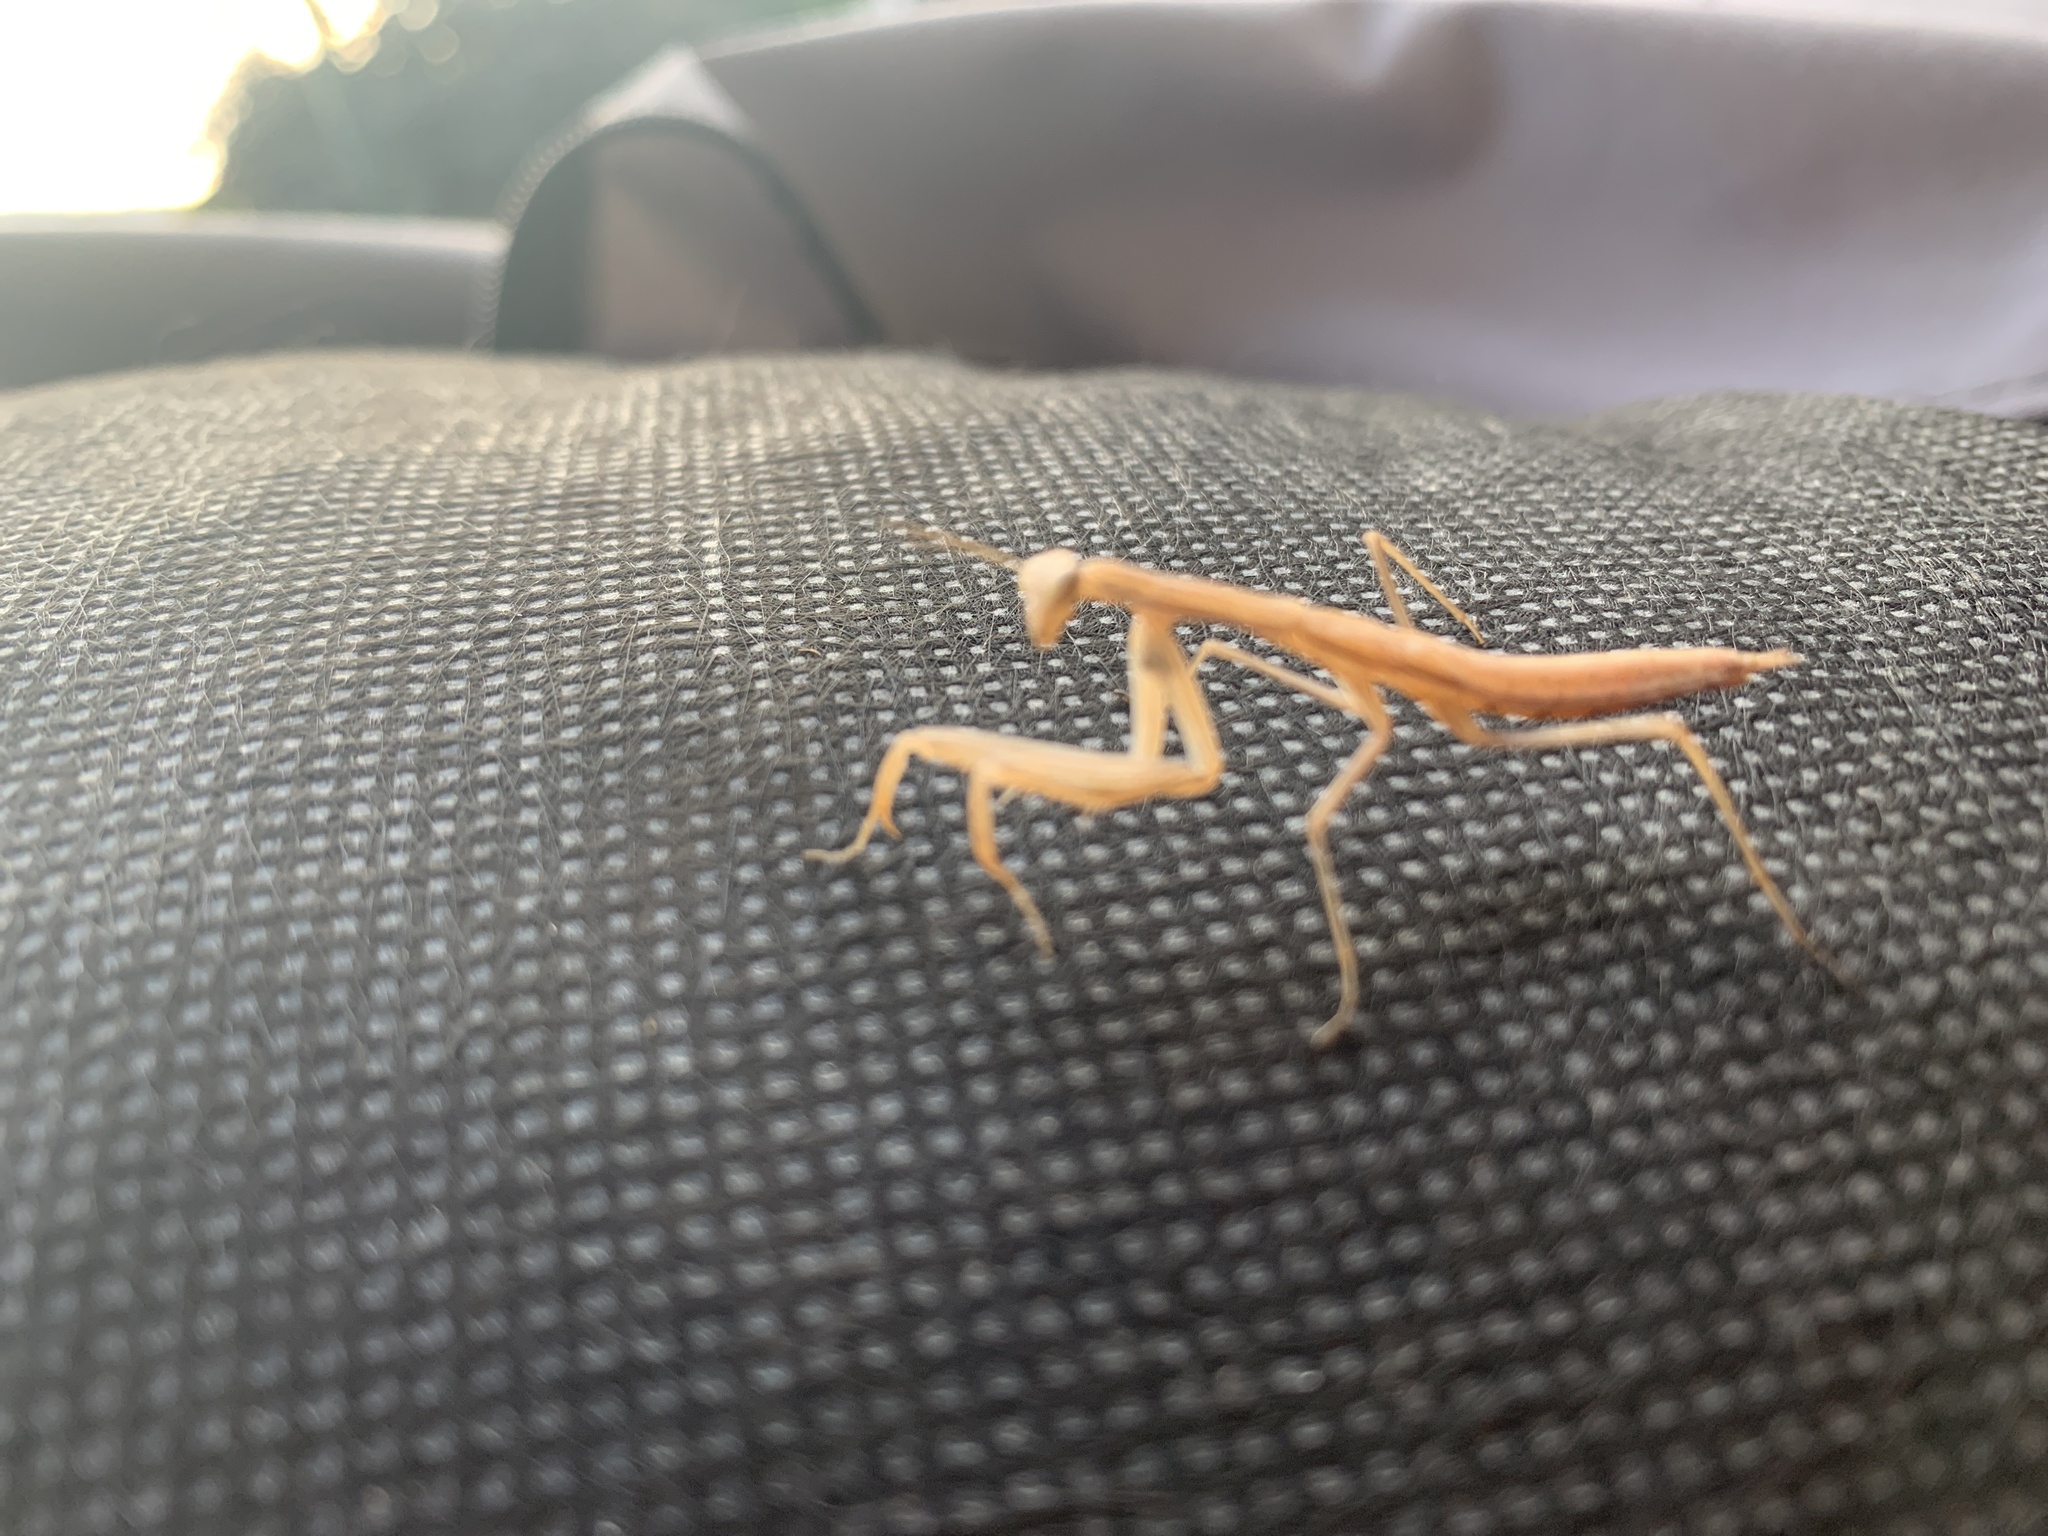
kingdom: Animalia
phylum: Arthropoda
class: Insecta
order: Mantodea
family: Mantidae
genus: Mantis
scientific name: Mantis religiosa
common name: Praying mantis
